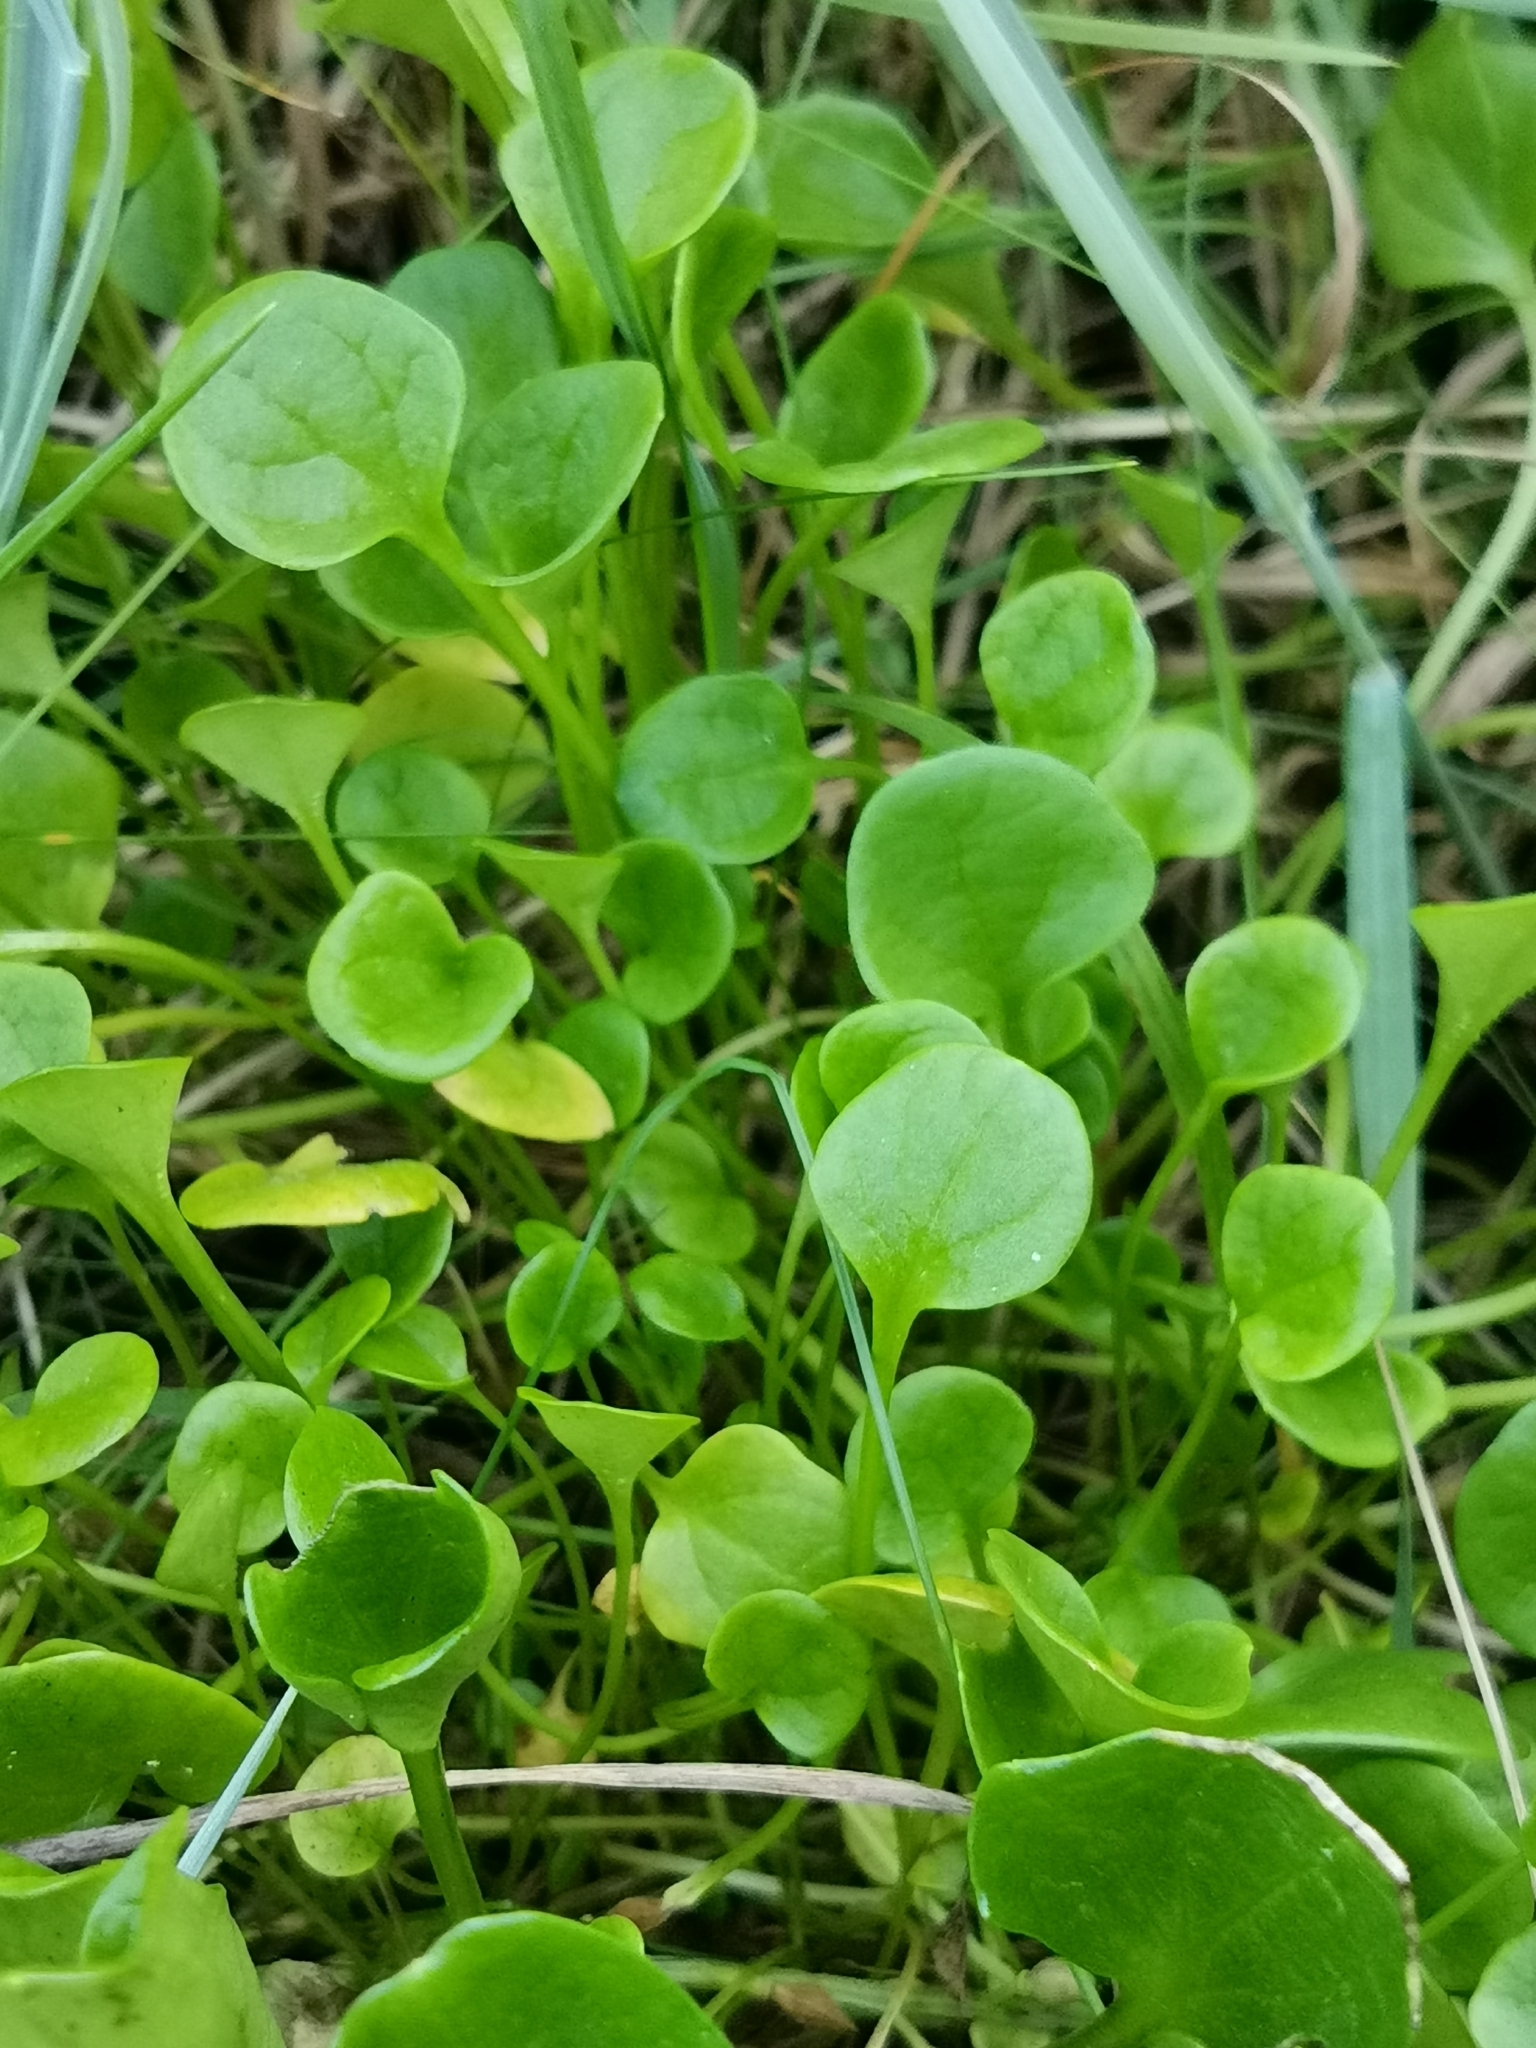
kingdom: Plantae
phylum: Tracheophyta
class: Magnoliopsida
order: Brassicales
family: Brassicaceae
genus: Cochlearia
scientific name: Cochlearia groenlandica
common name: Danish scurvygrass
